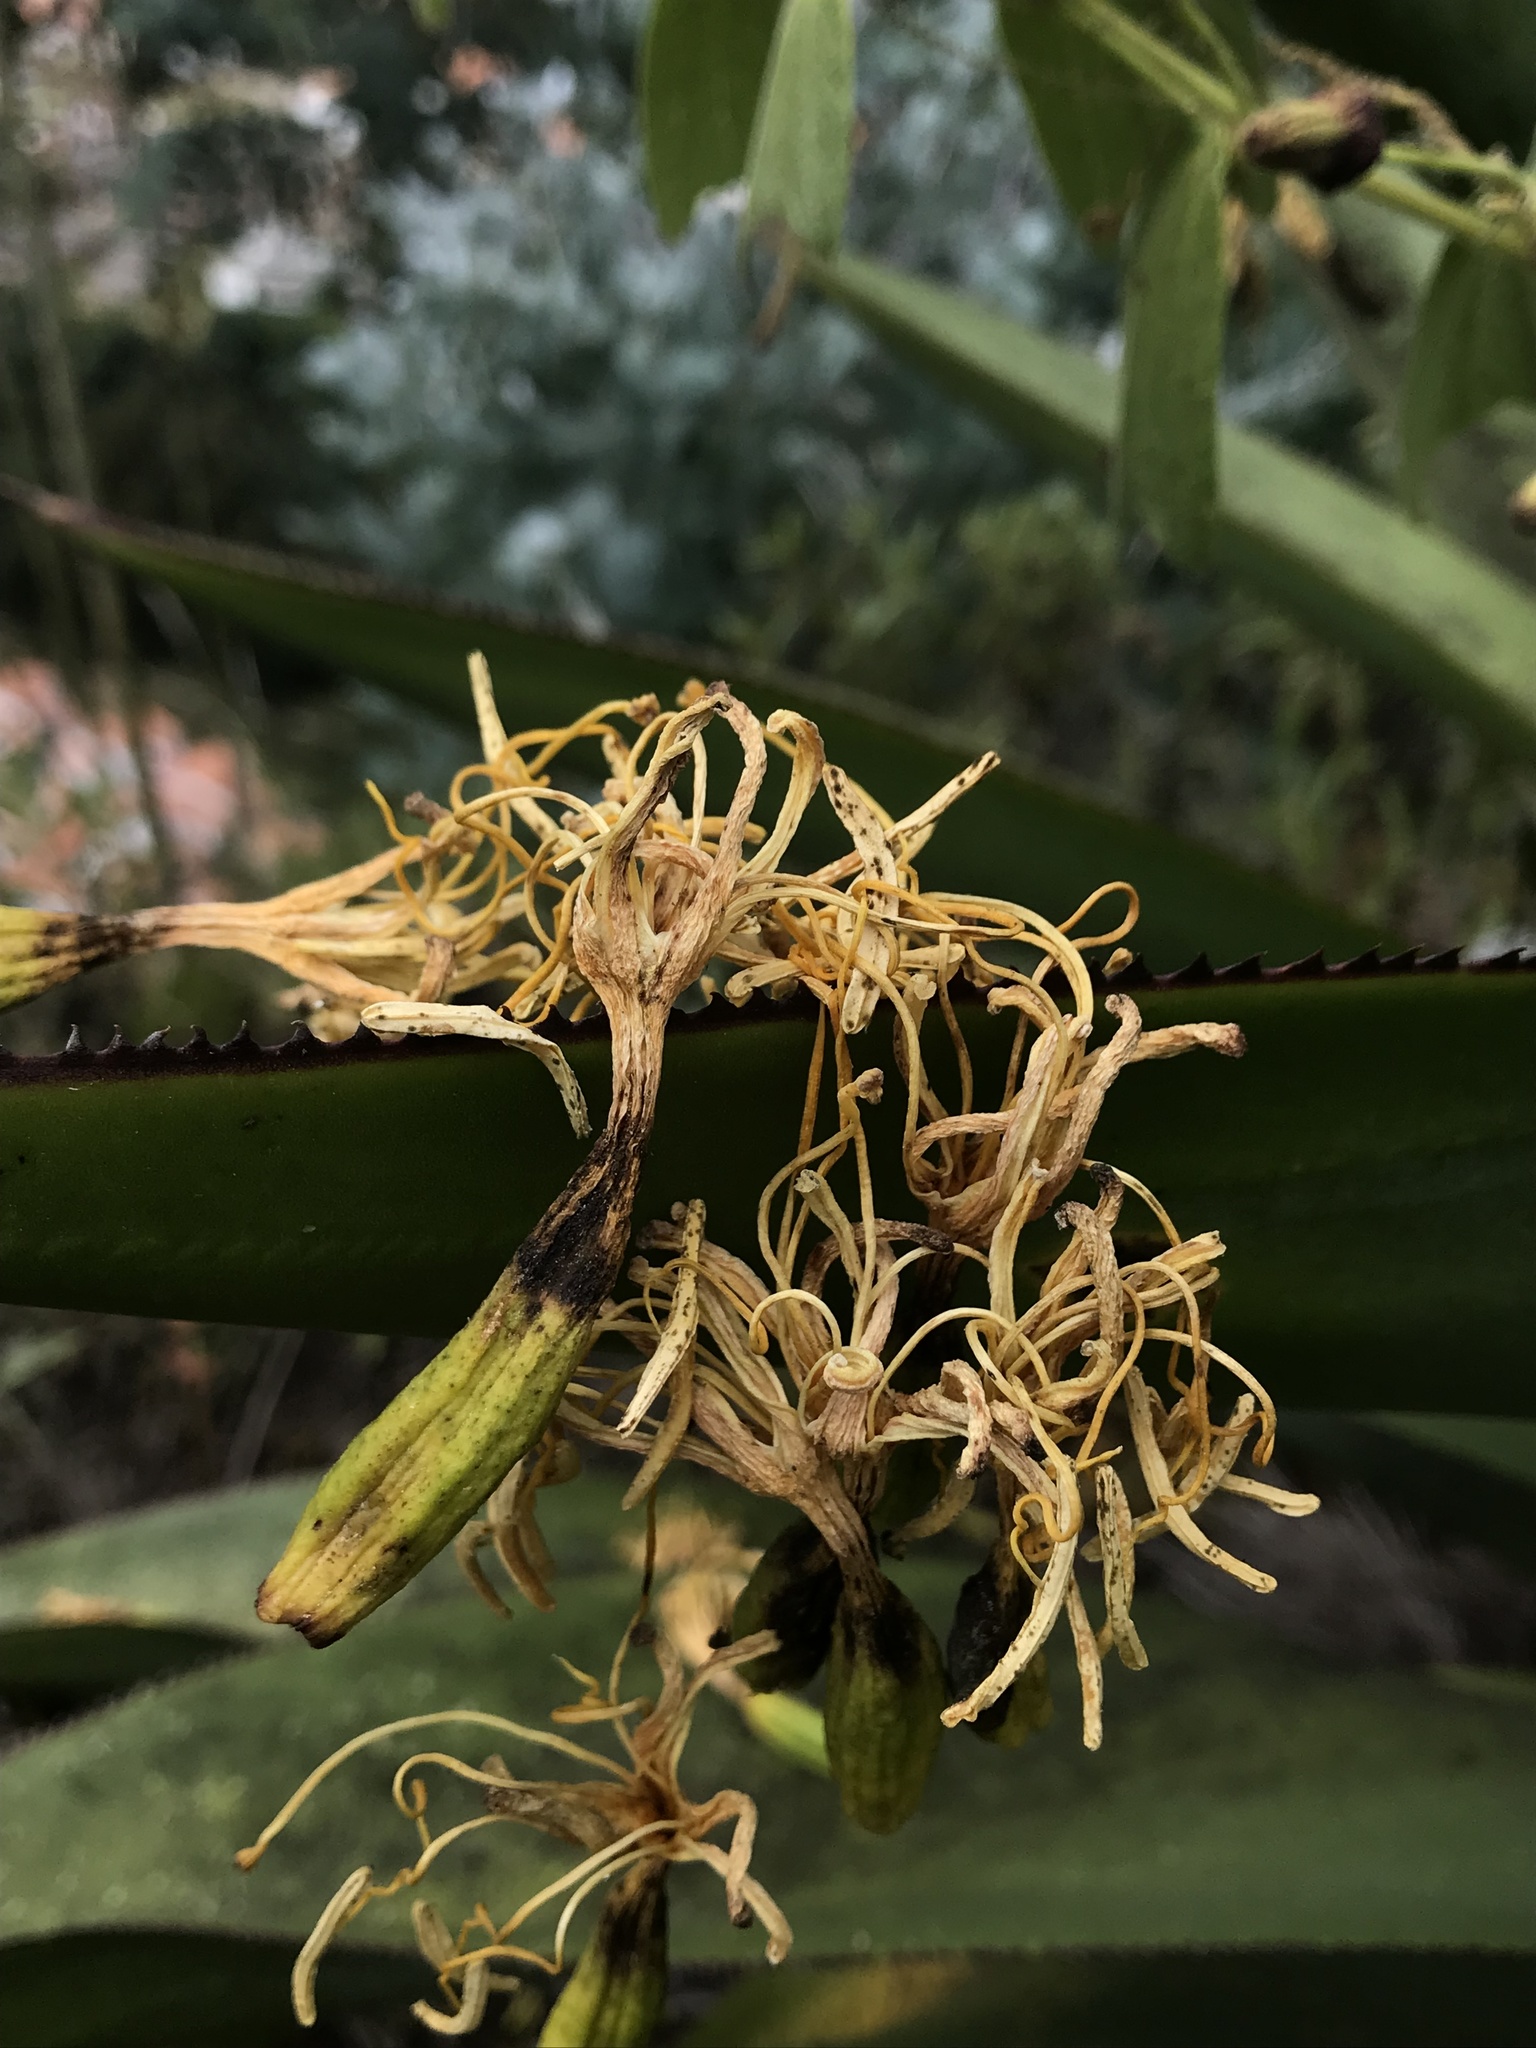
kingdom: Plantae
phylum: Tracheophyta
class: Liliopsida
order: Asparagales
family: Asparagaceae
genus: Agave
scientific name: Agave sylvesteriana
